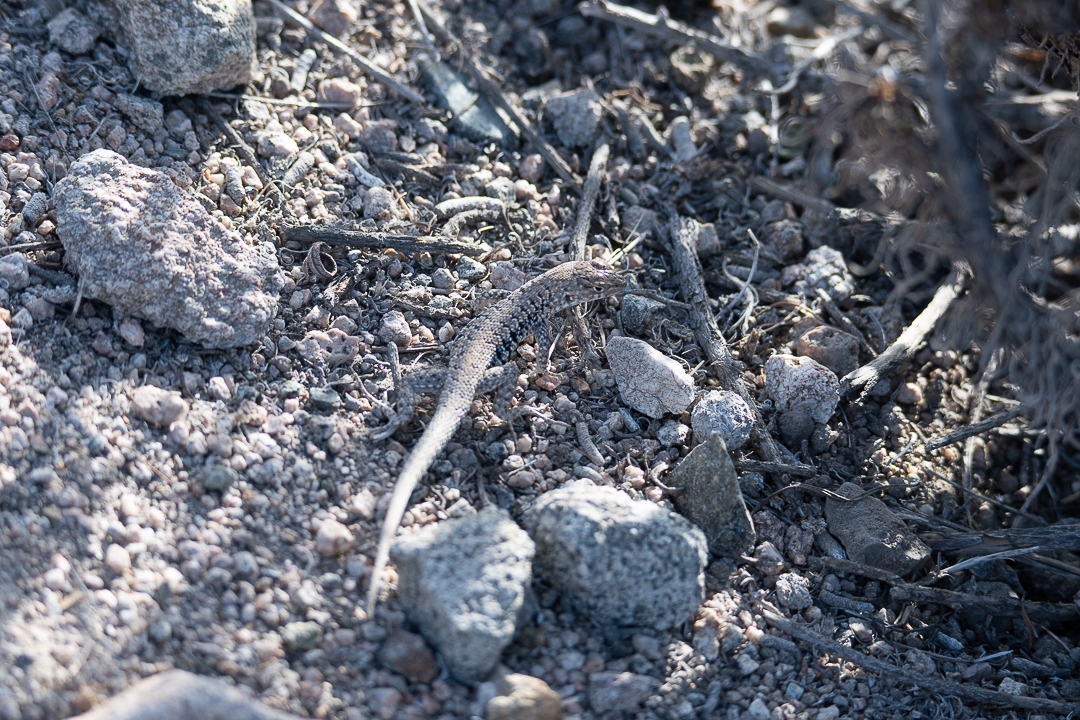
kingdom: Animalia
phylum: Chordata
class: Squamata
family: Liolaemidae
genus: Liolaemus
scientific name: Liolaemus platei
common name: Braided tree iguana
